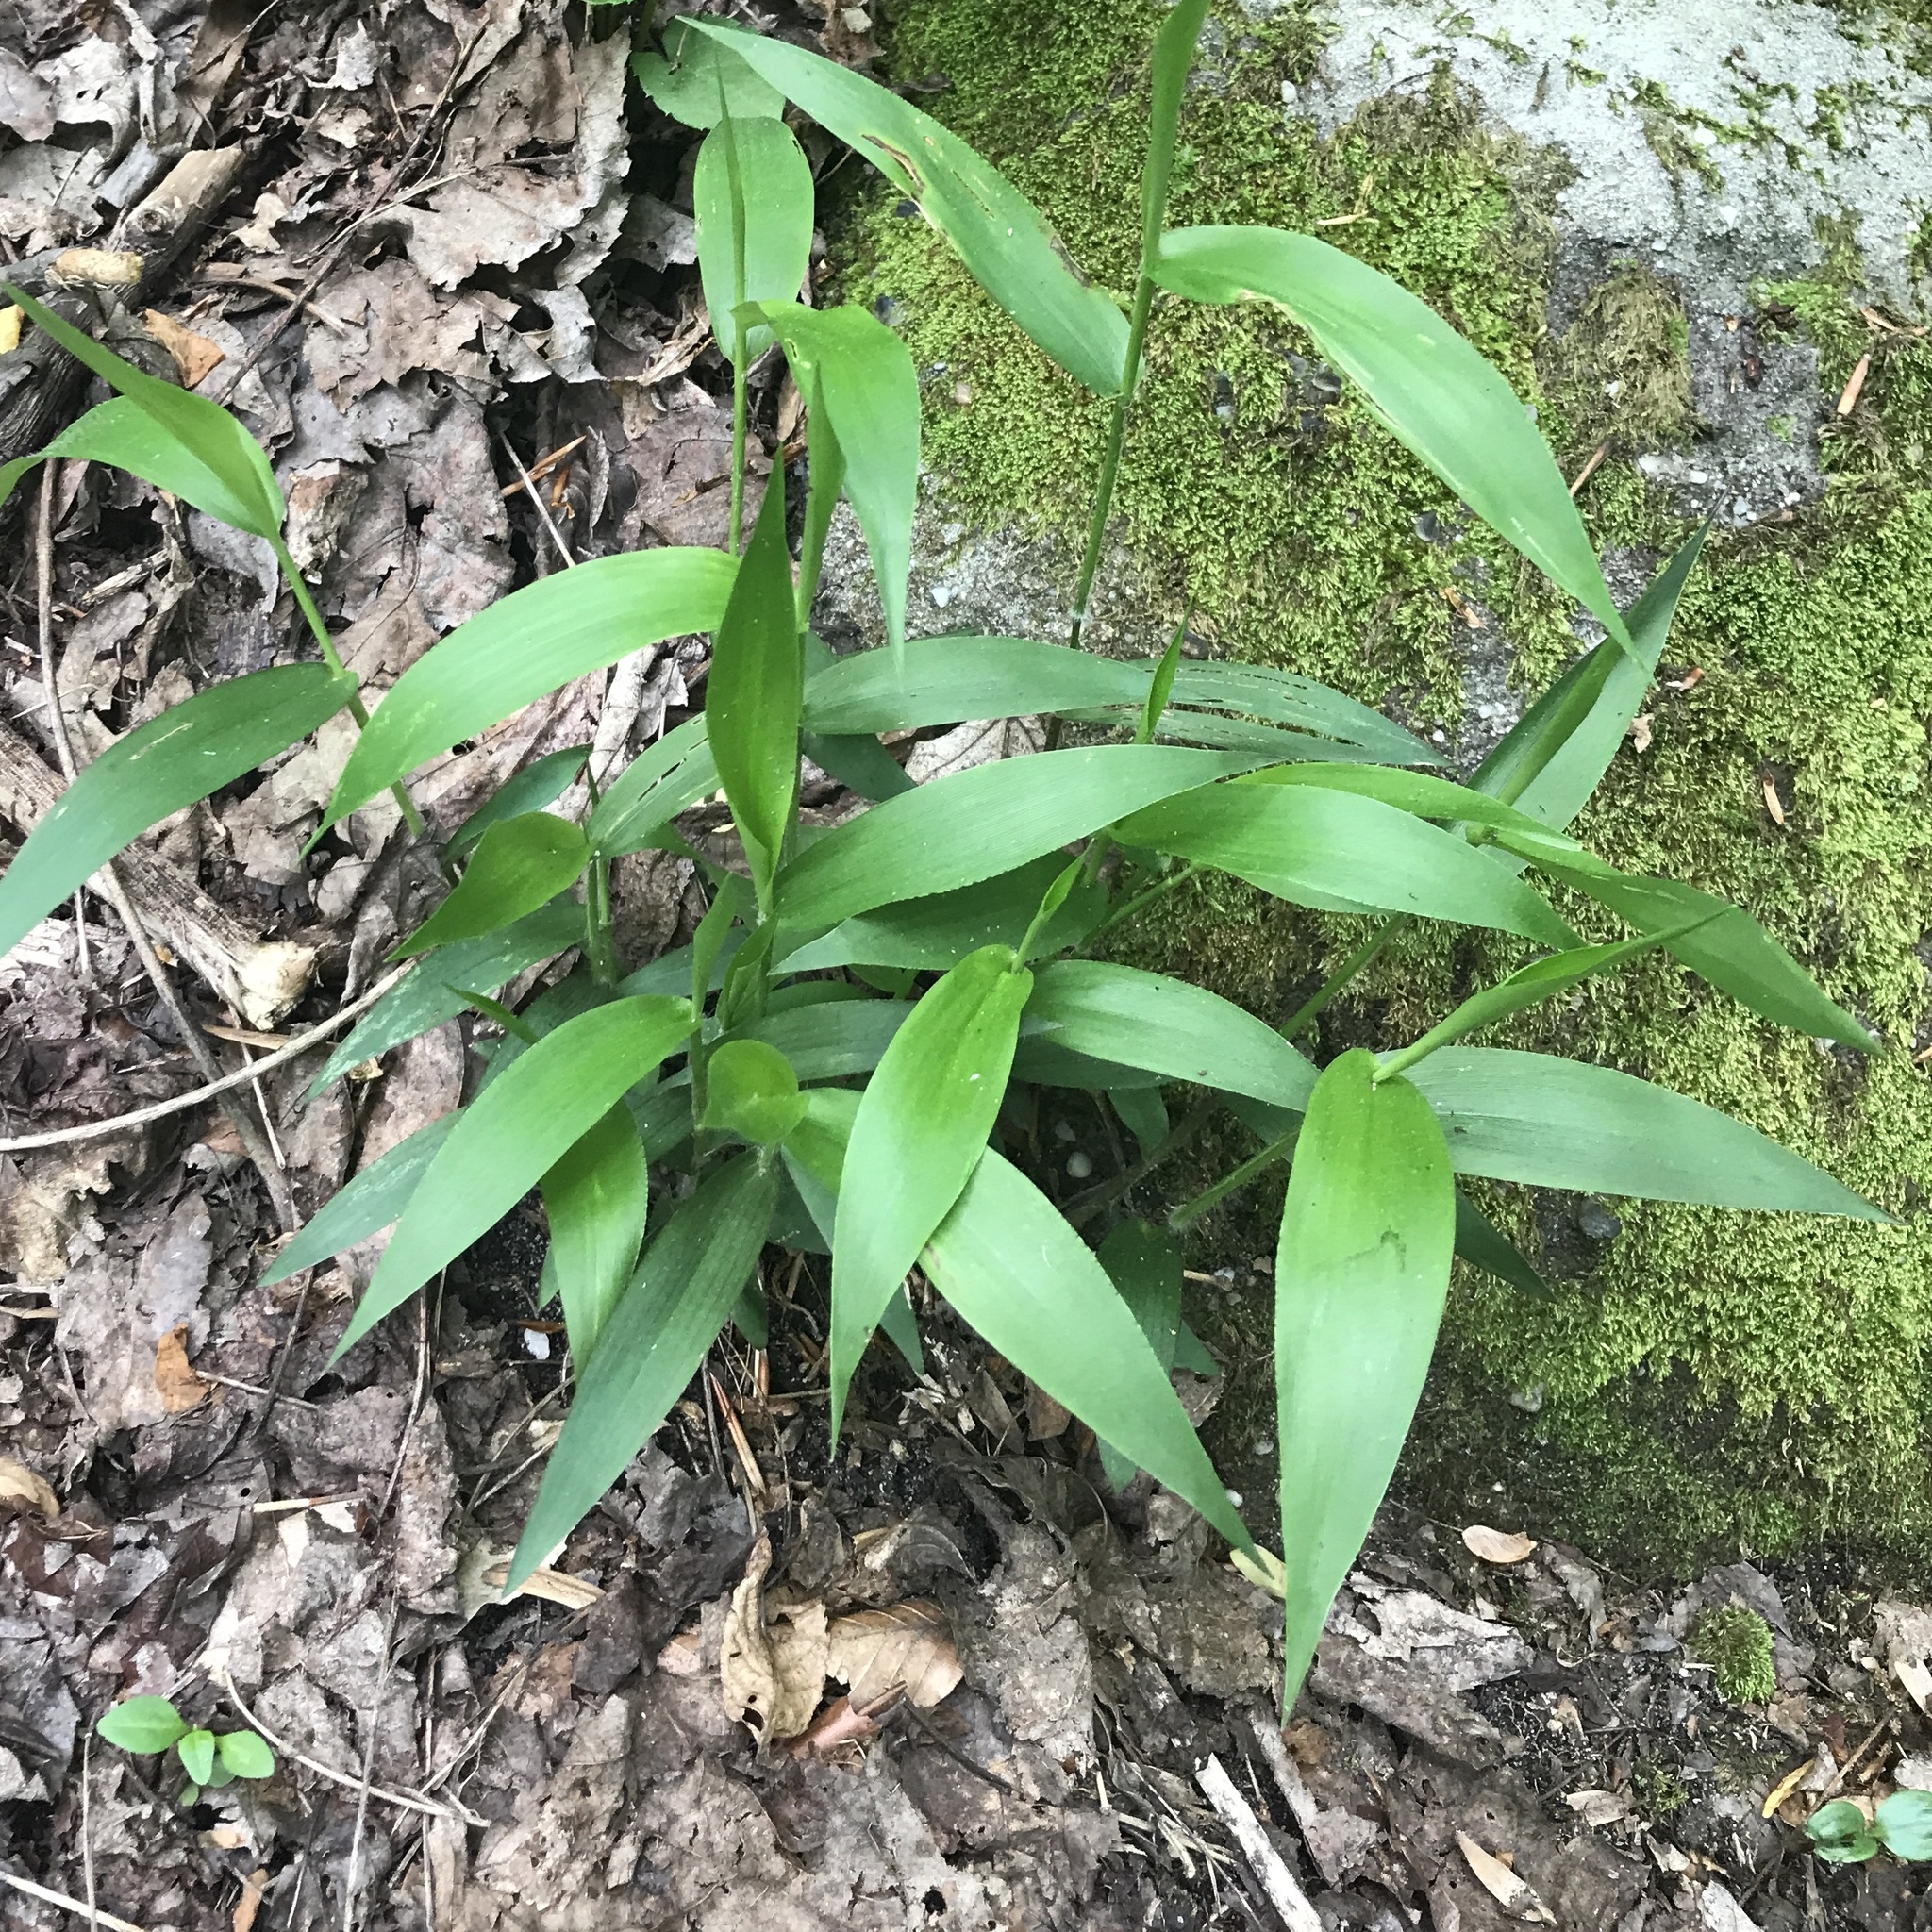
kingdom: Plantae
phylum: Tracheophyta
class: Liliopsida
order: Poales
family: Poaceae
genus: Dichanthelium
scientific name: Dichanthelium boscii
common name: Bosc's panic grass
